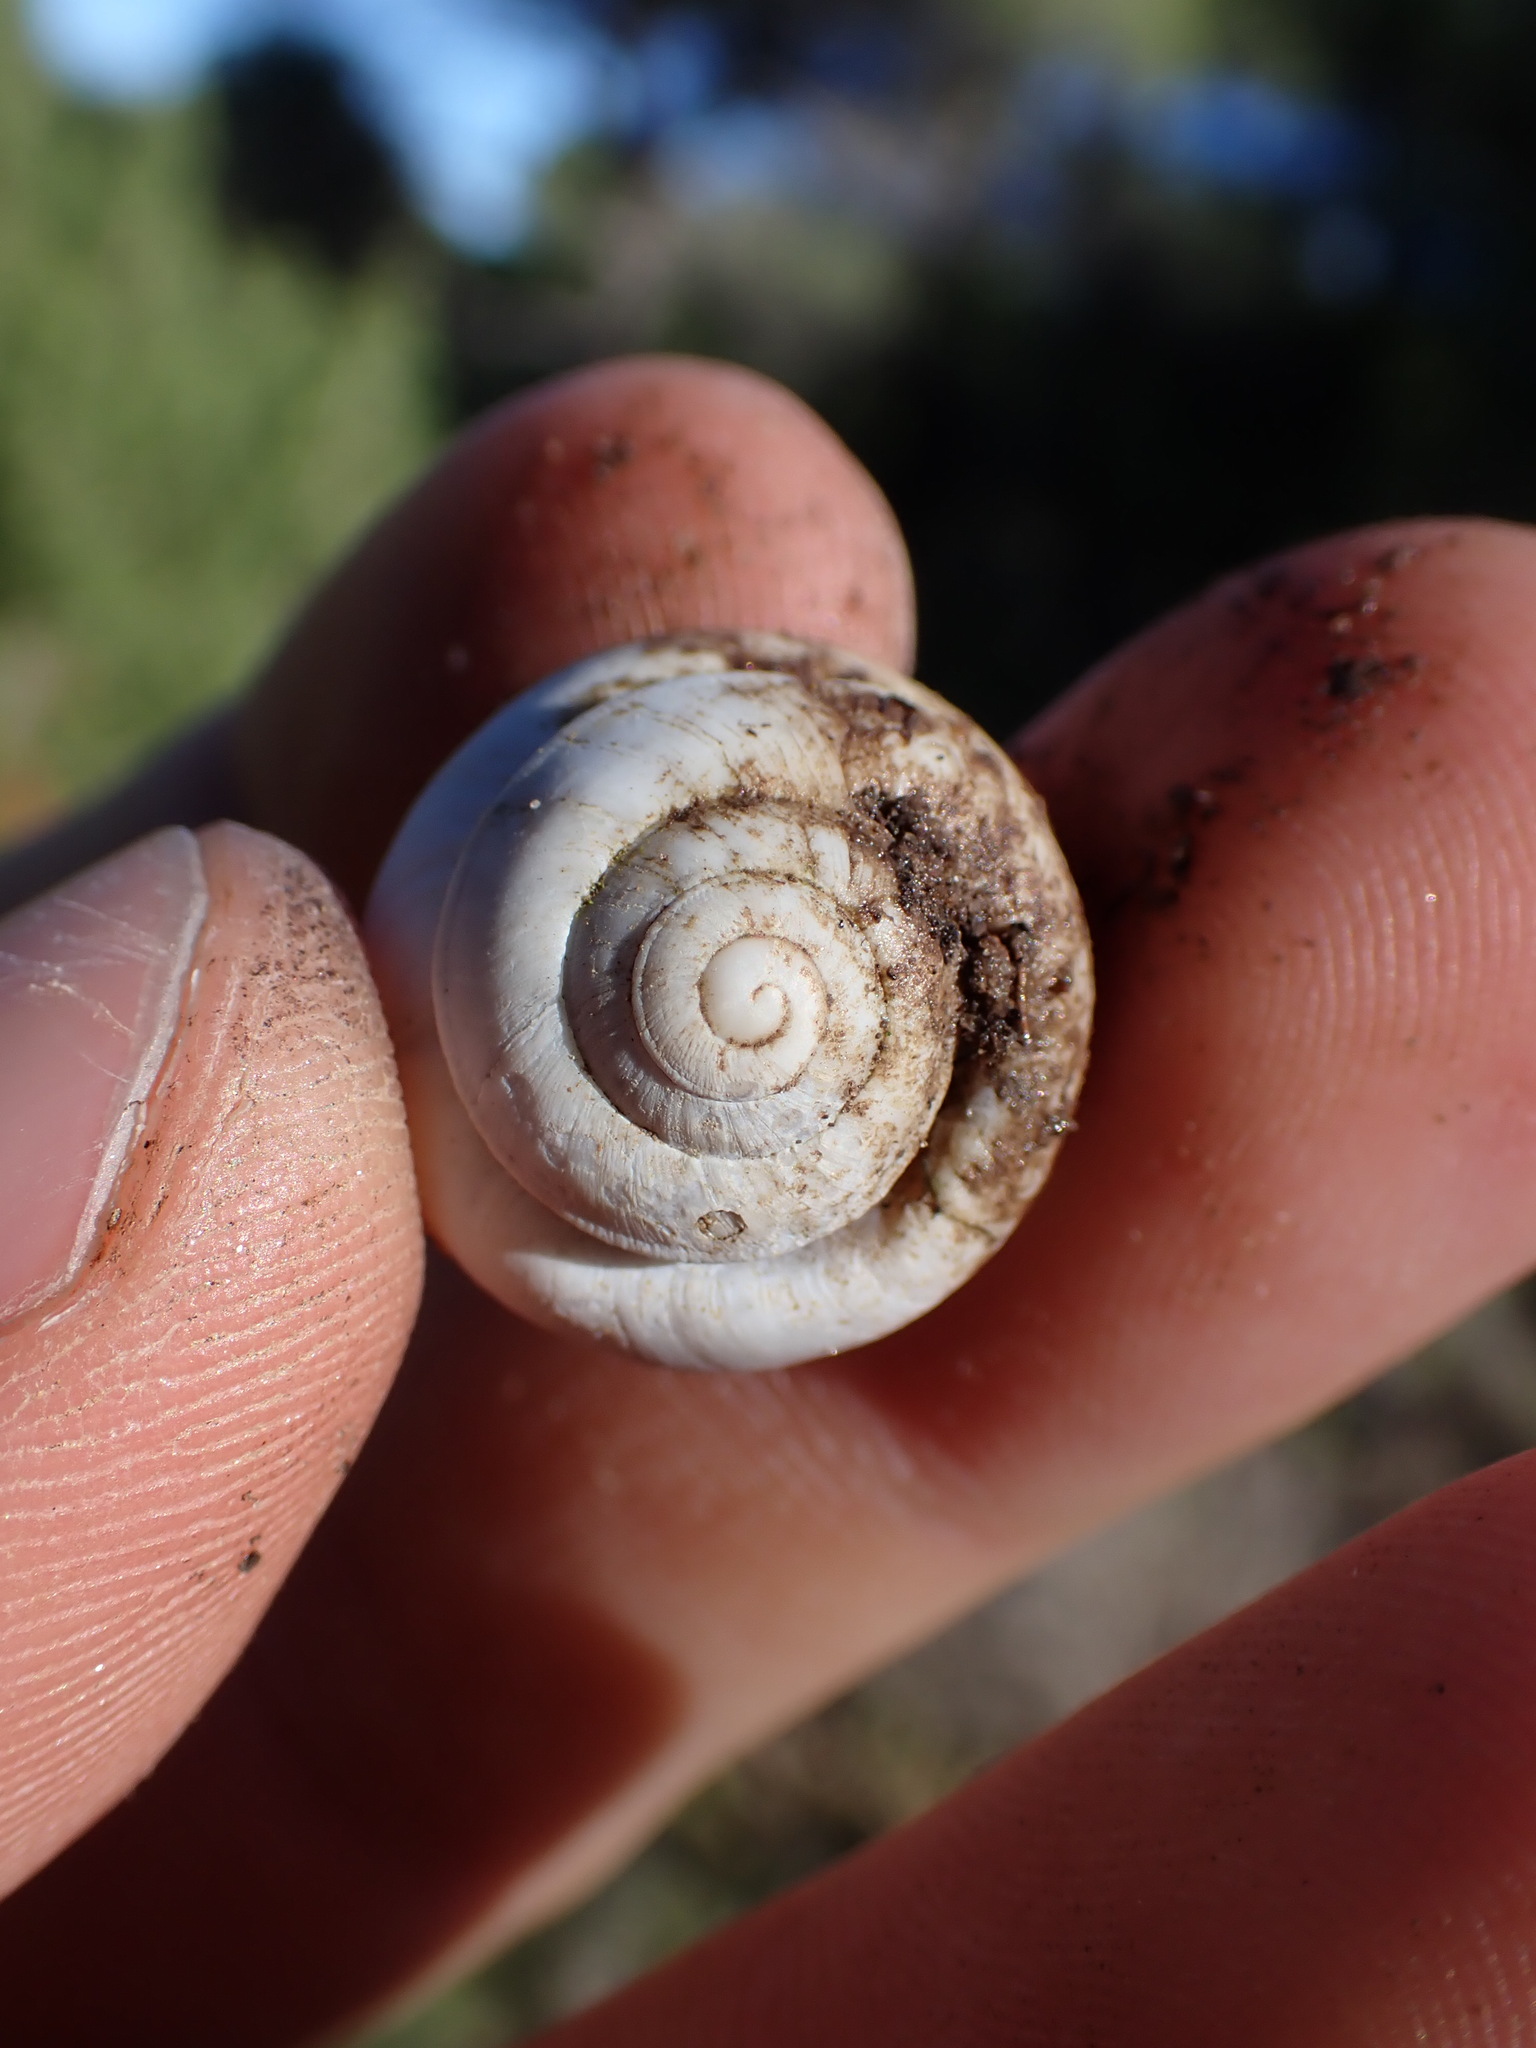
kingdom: Animalia
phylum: Mollusca
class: Gastropoda
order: Stylommatophora
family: Sphincterochilidae
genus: Sphincterochila
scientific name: Sphincterochila candidissima
